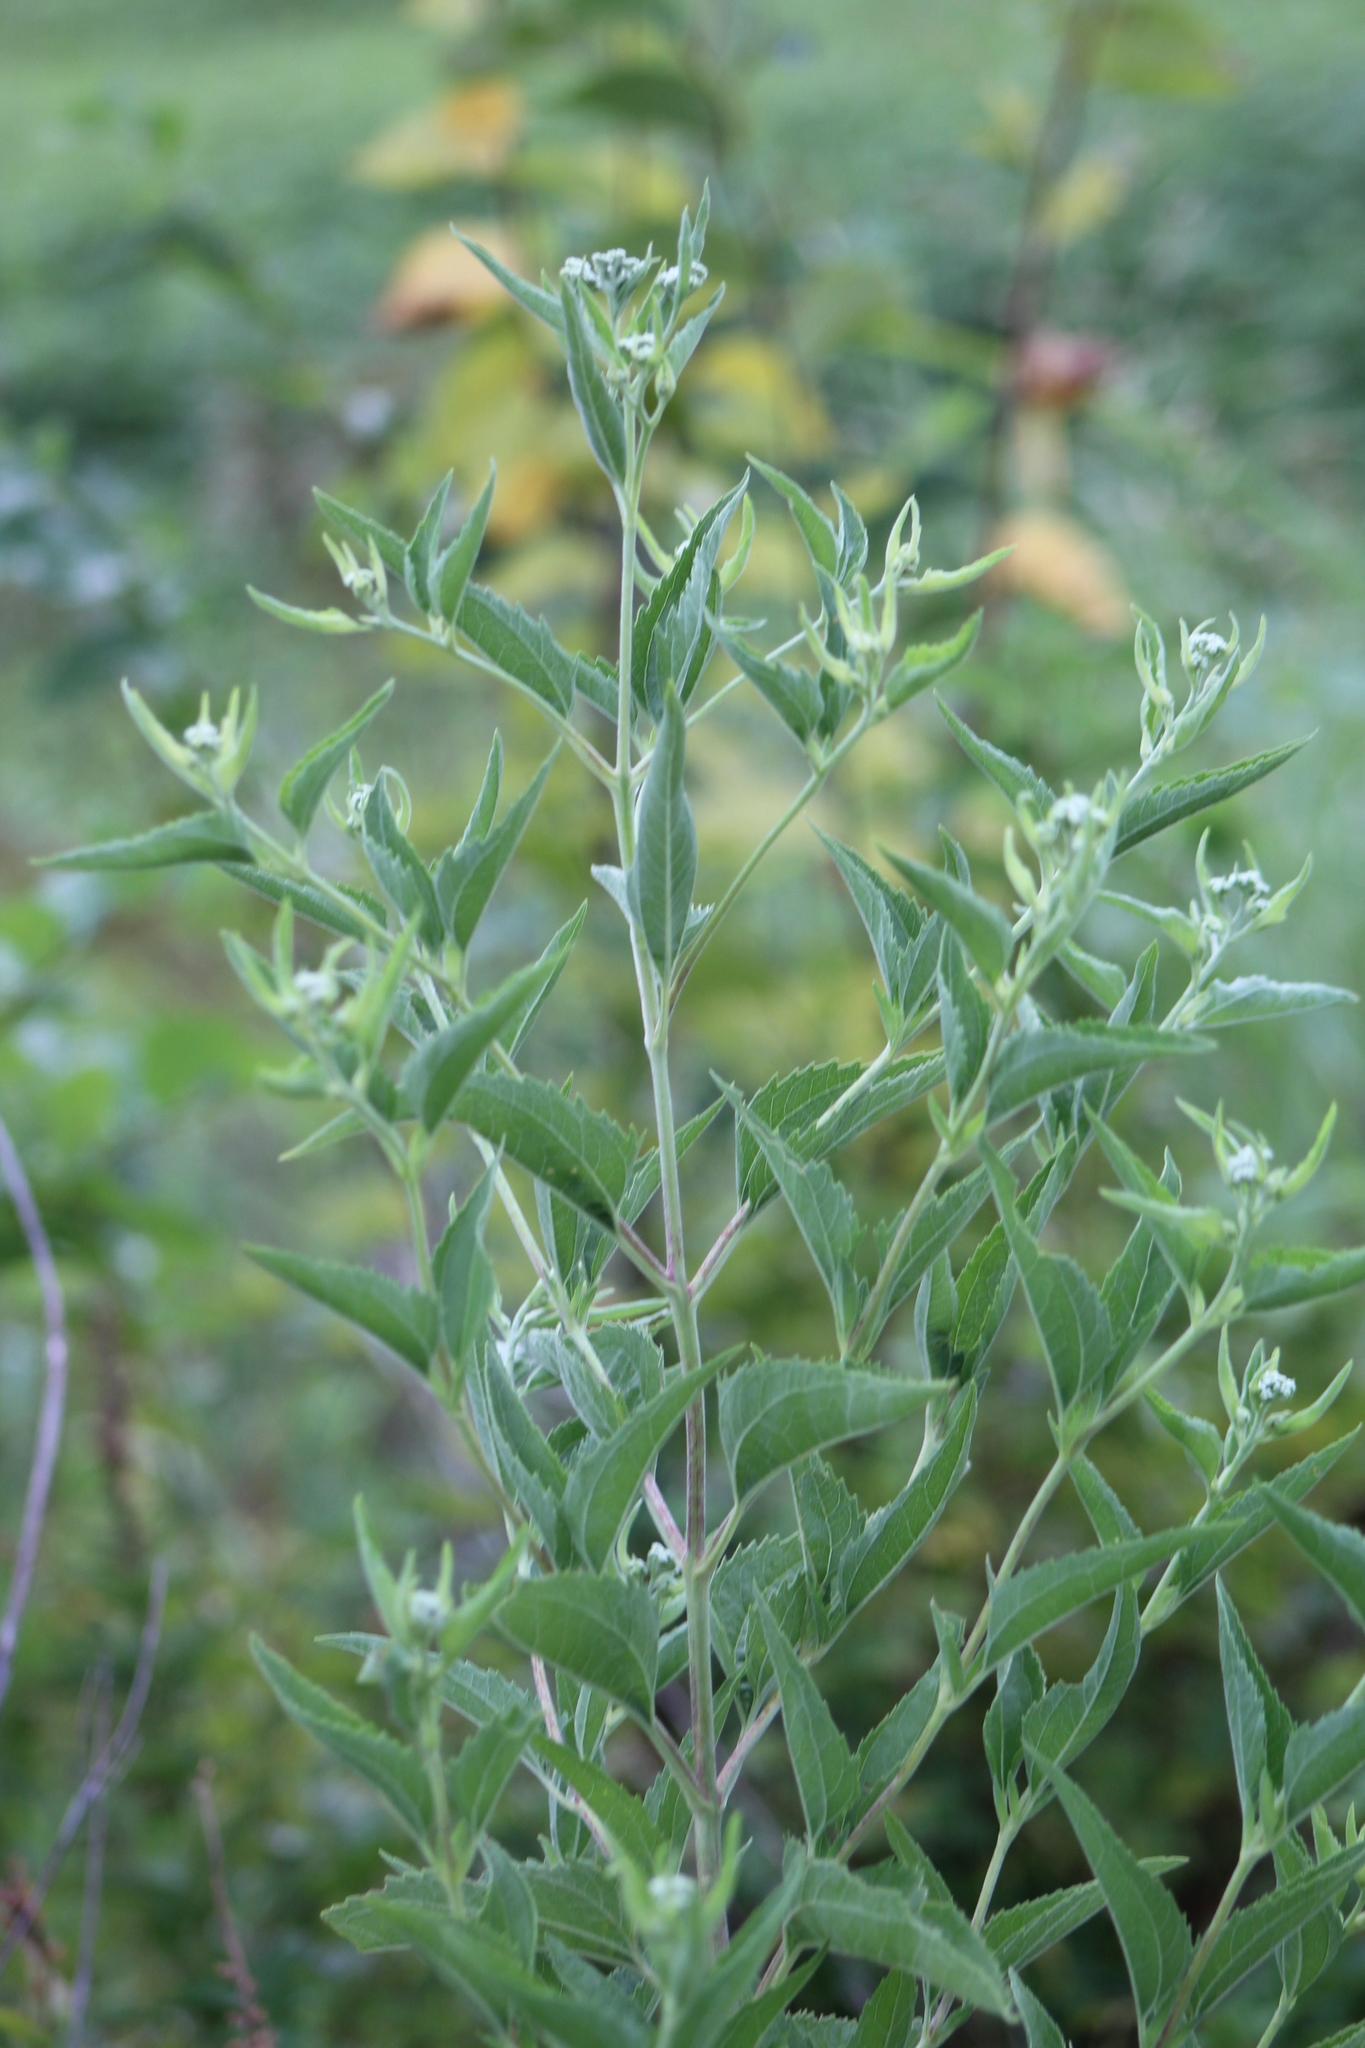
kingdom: Plantae
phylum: Tracheophyta
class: Magnoliopsida
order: Asterales
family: Asteraceae
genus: Eupatorium
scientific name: Eupatorium serotinum
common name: Late boneset
